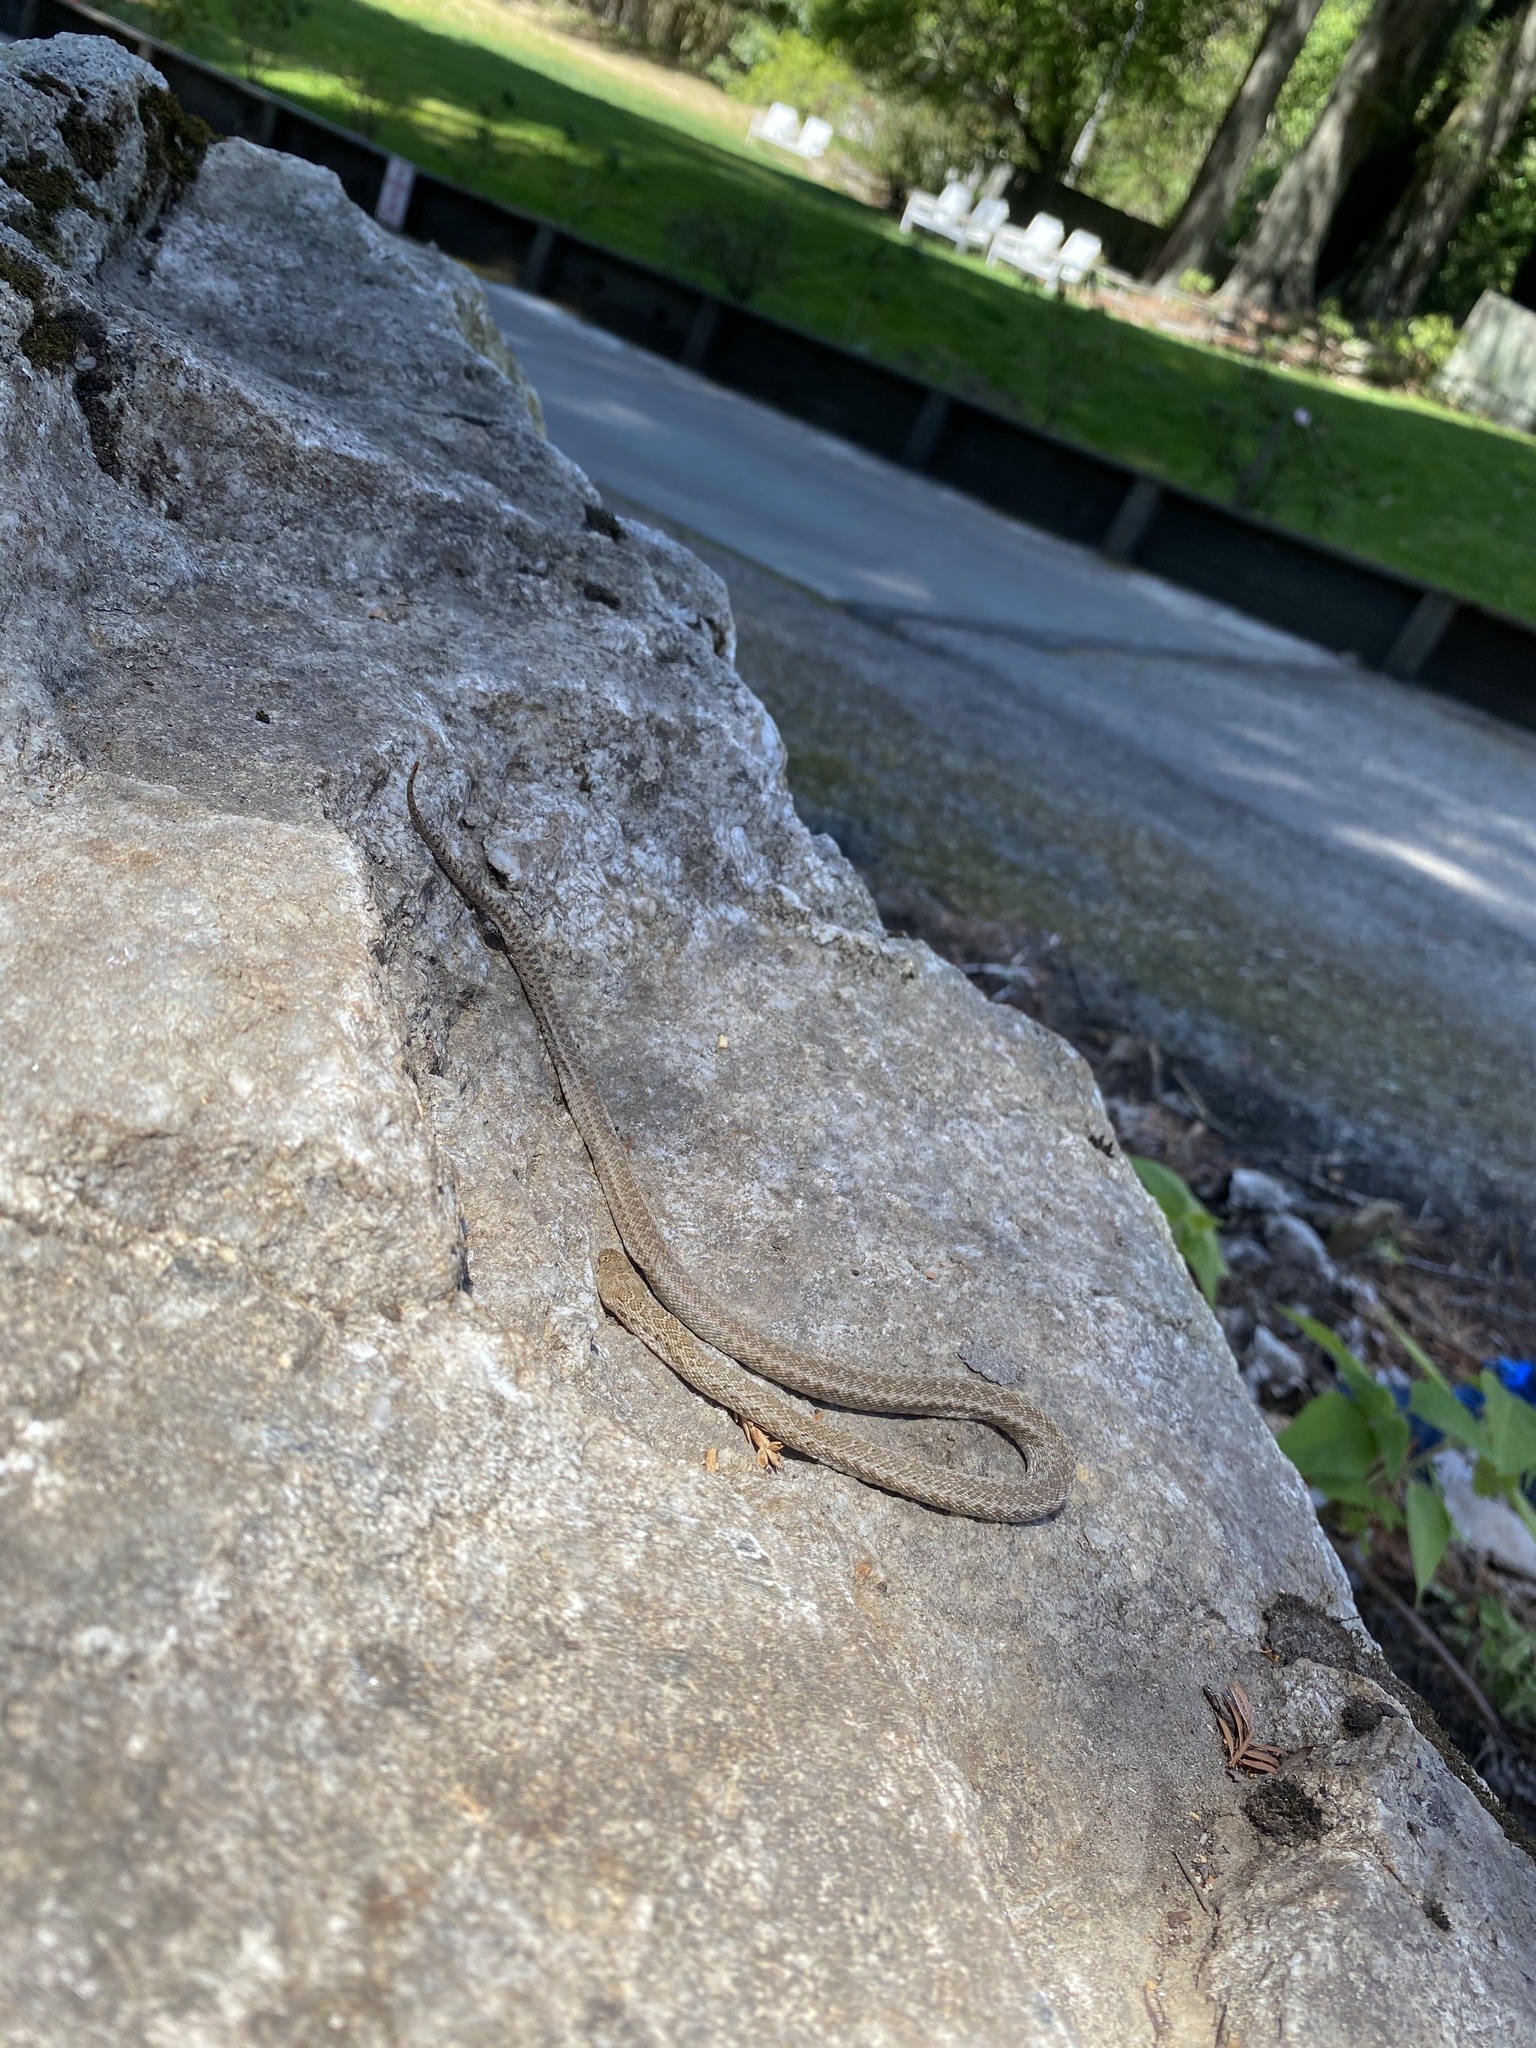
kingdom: Animalia
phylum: Chordata
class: Squamata
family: Colubridae
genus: Pituophis
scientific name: Pituophis catenifer
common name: Gopher snake
